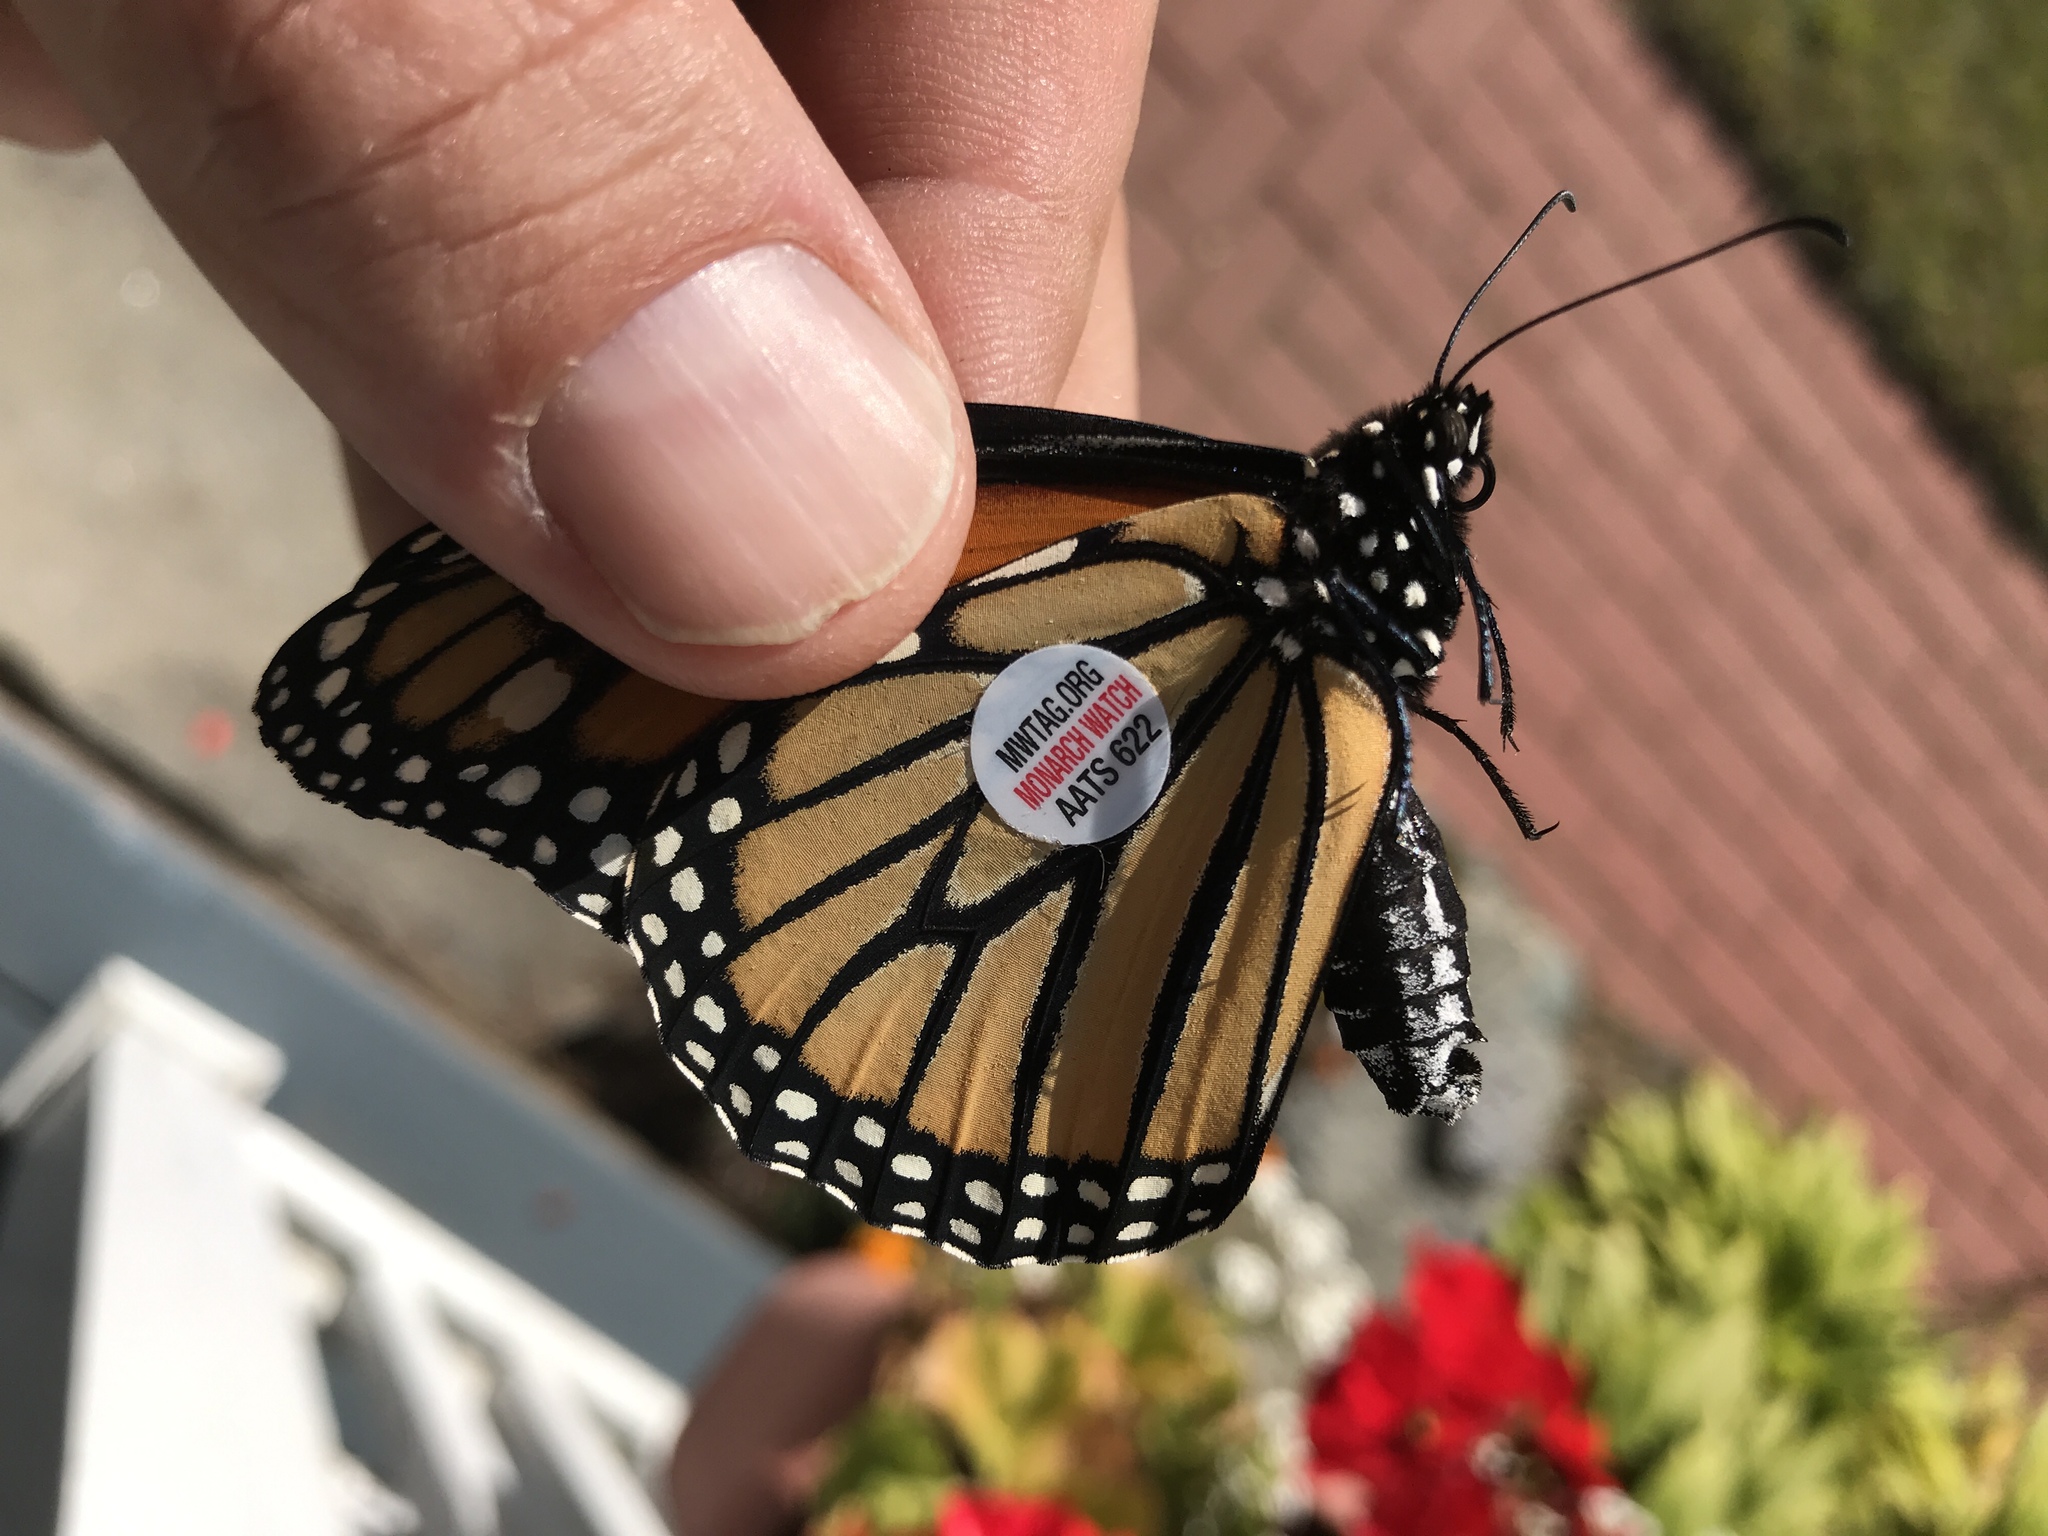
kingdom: Animalia
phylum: Arthropoda
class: Insecta
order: Lepidoptera
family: Nymphalidae
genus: Danaus
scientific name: Danaus plexippus
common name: Monarch
